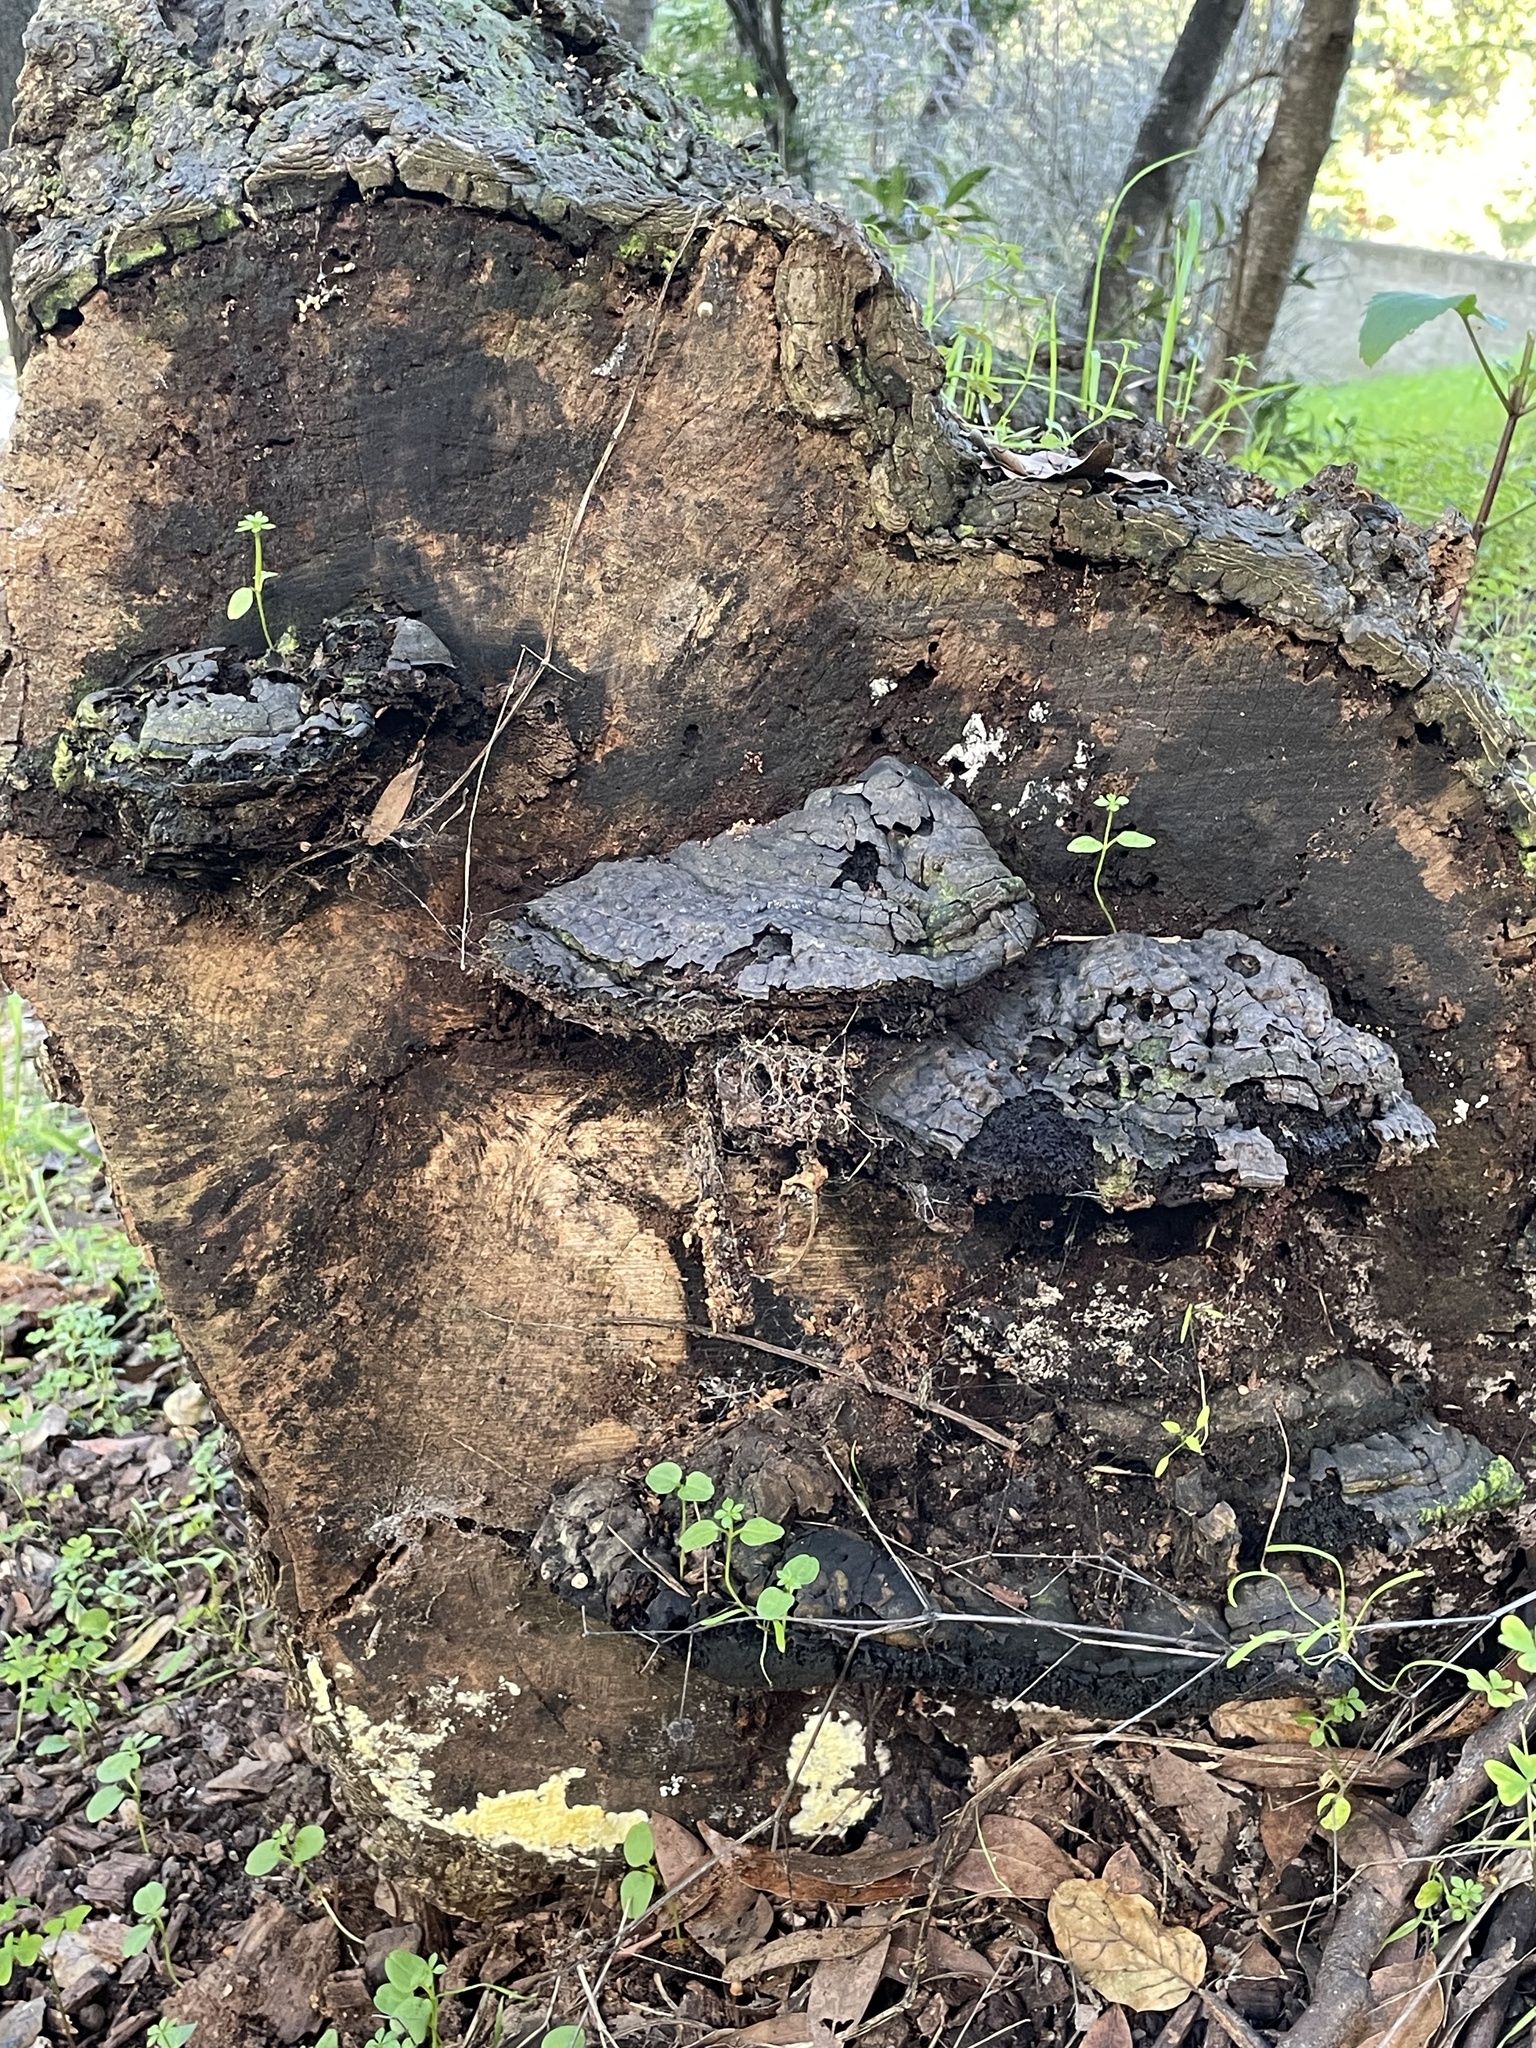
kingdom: Fungi
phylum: Basidiomycota
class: Agaricomycetes
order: Polyporales
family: Polyporaceae
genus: Ganoderma
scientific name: Ganoderma brownii
